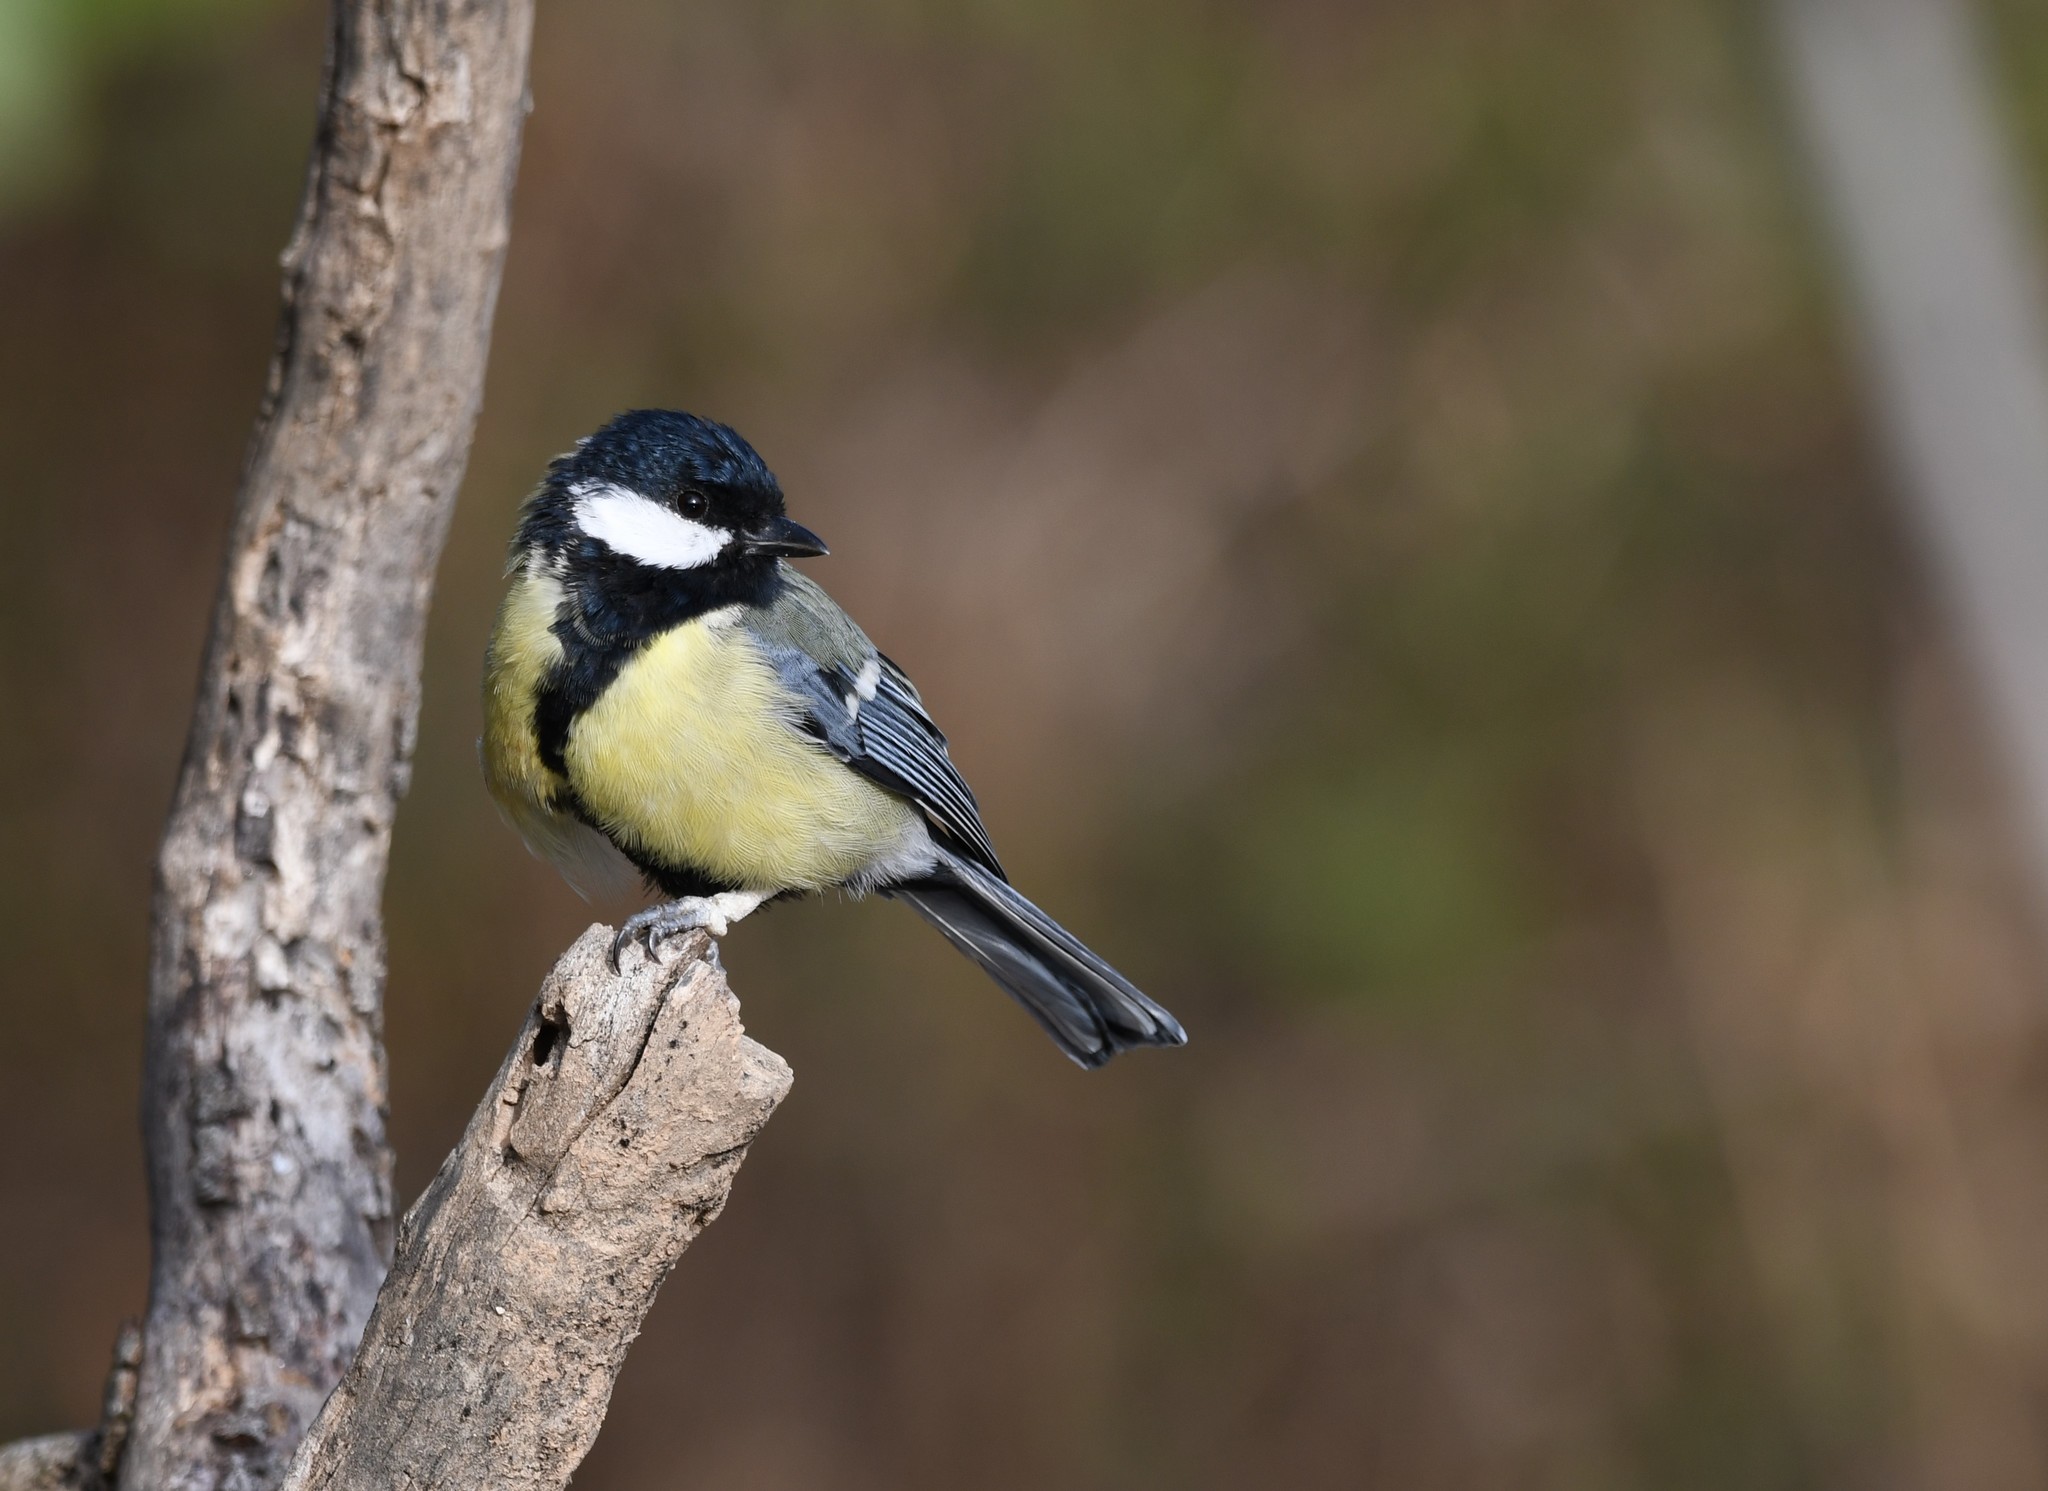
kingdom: Animalia
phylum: Chordata
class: Aves
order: Passeriformes
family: Paridae
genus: Parus
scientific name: Parus major
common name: Great tit
